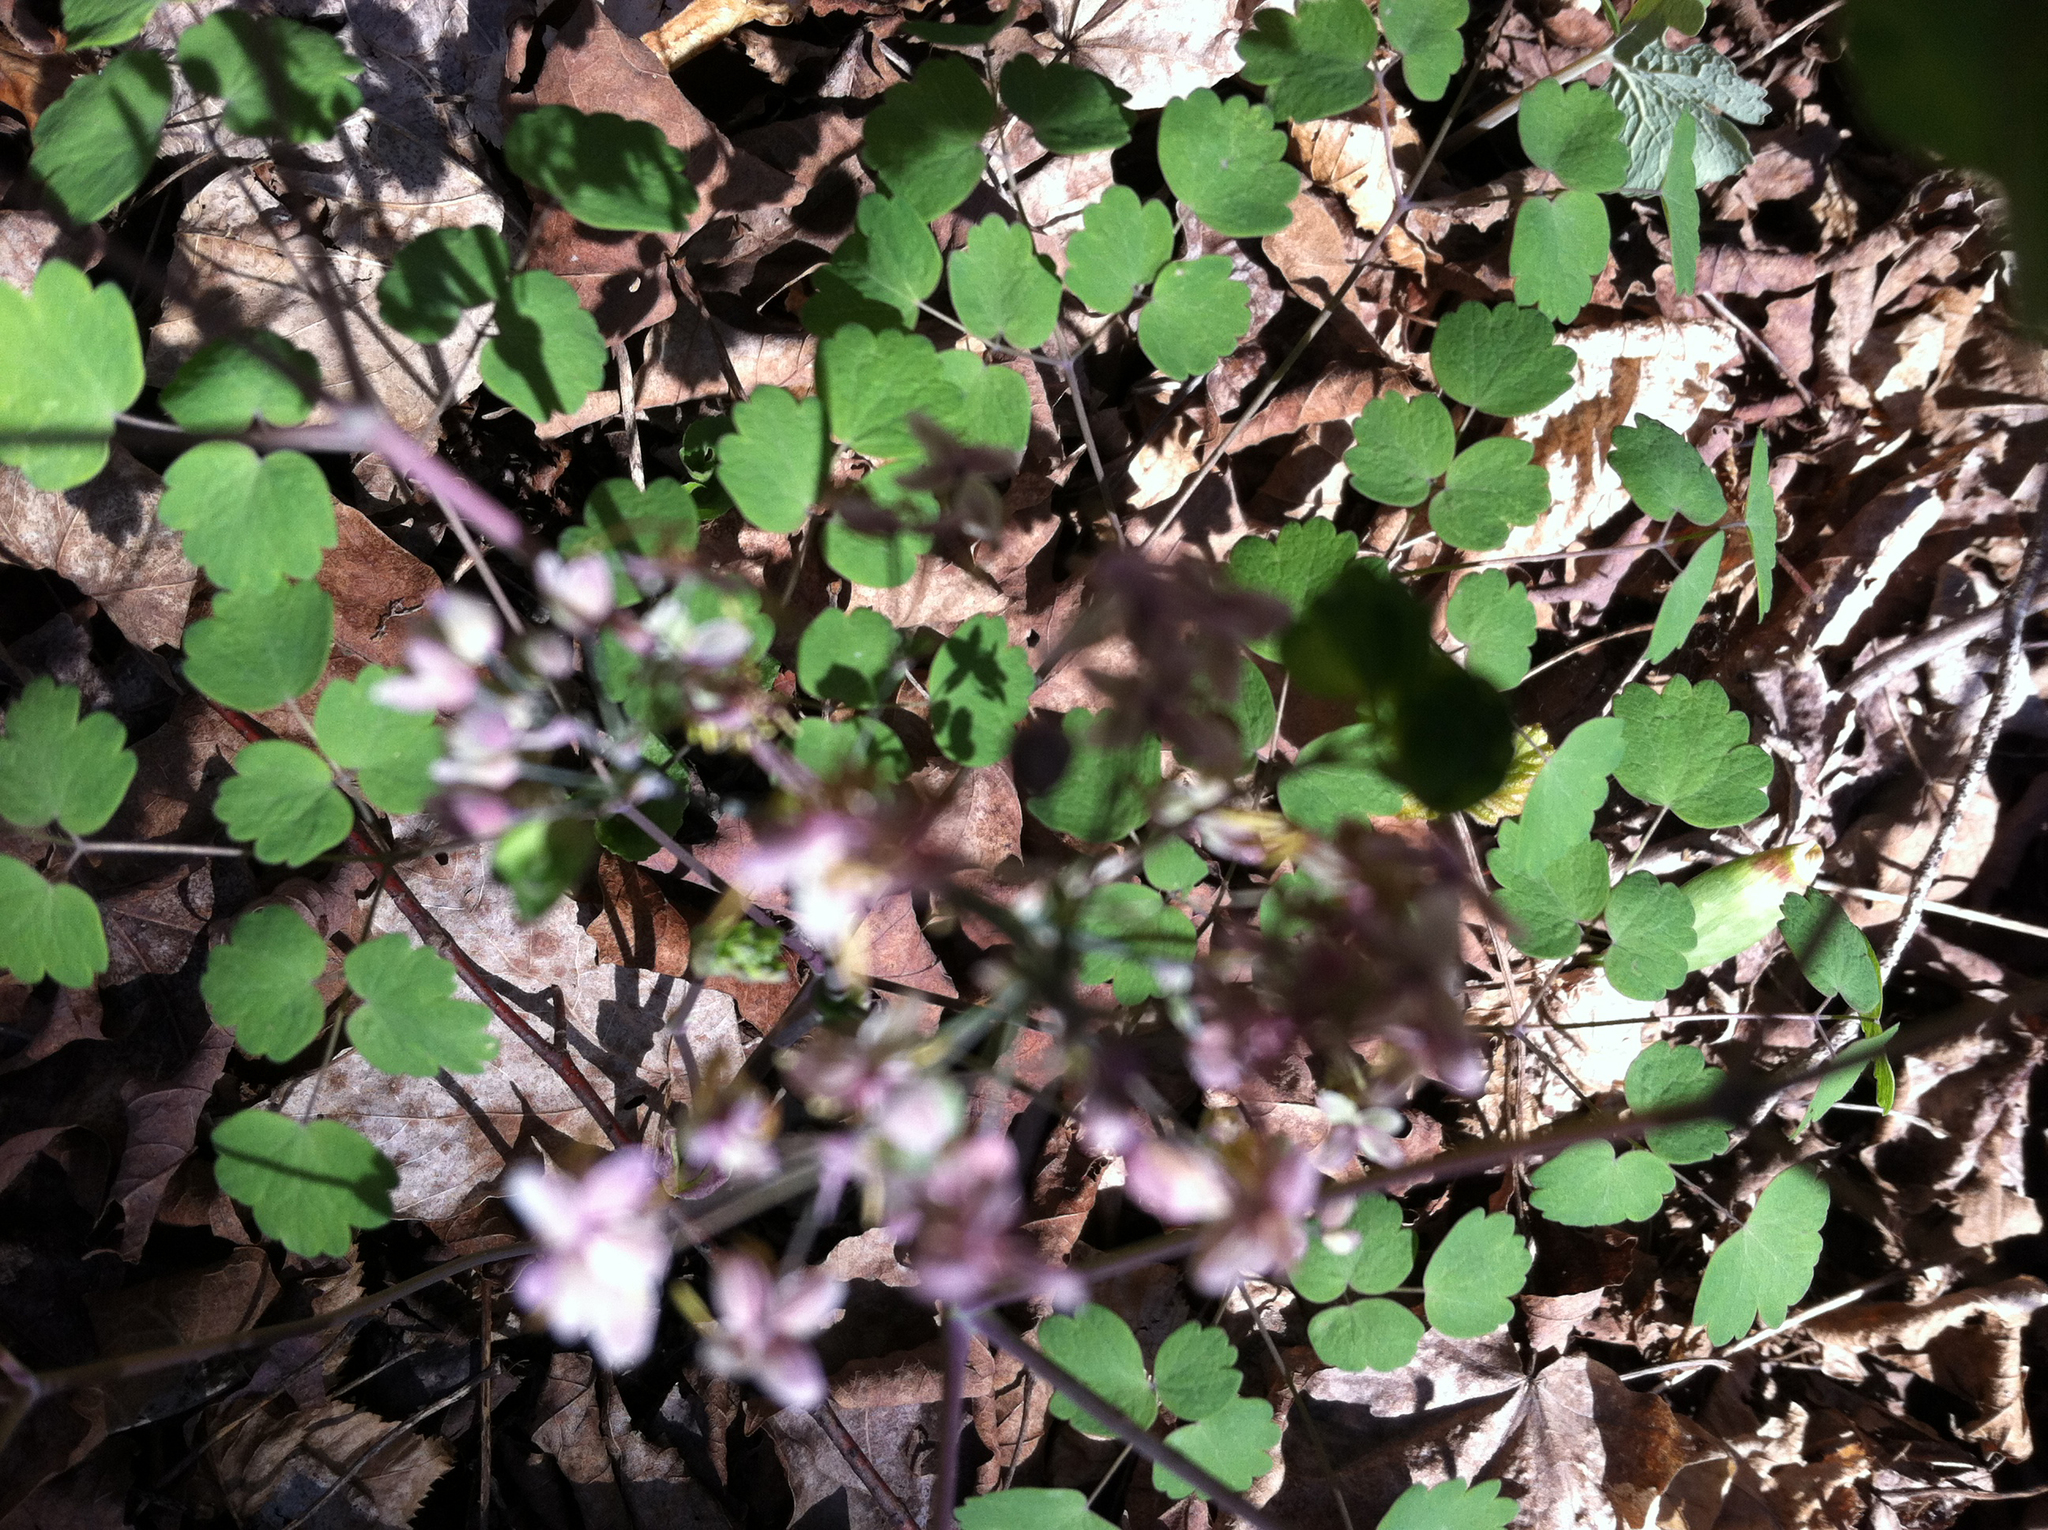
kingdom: Plantae
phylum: Tracheophyta
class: Magnoliopsida
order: Ranunculales
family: Ranunculaceae
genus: Thalictrum
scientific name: Thalictrum dioicum
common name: Early meadow-rue
